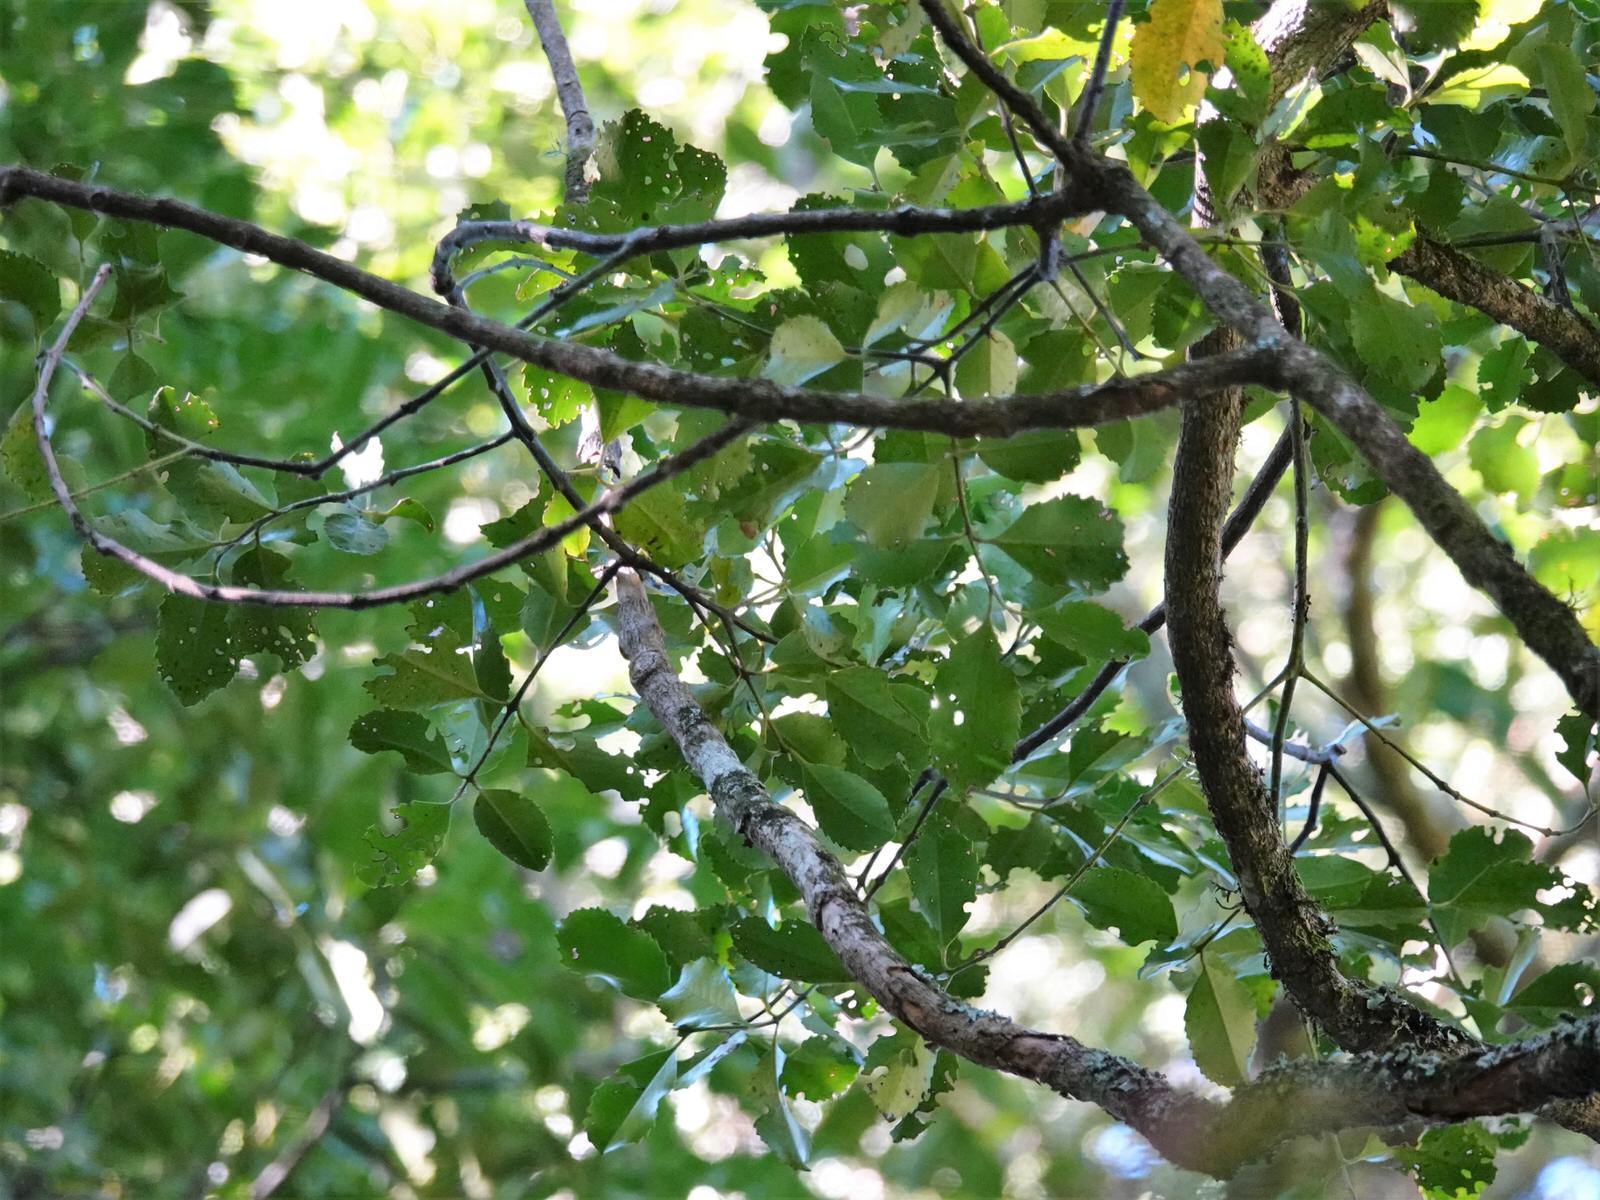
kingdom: Plantae
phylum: Tracheophyta
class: Magnoliopsida
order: Laurales
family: Atherospermataceae
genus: Laurelia
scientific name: Laurelia novae-zelandiae
